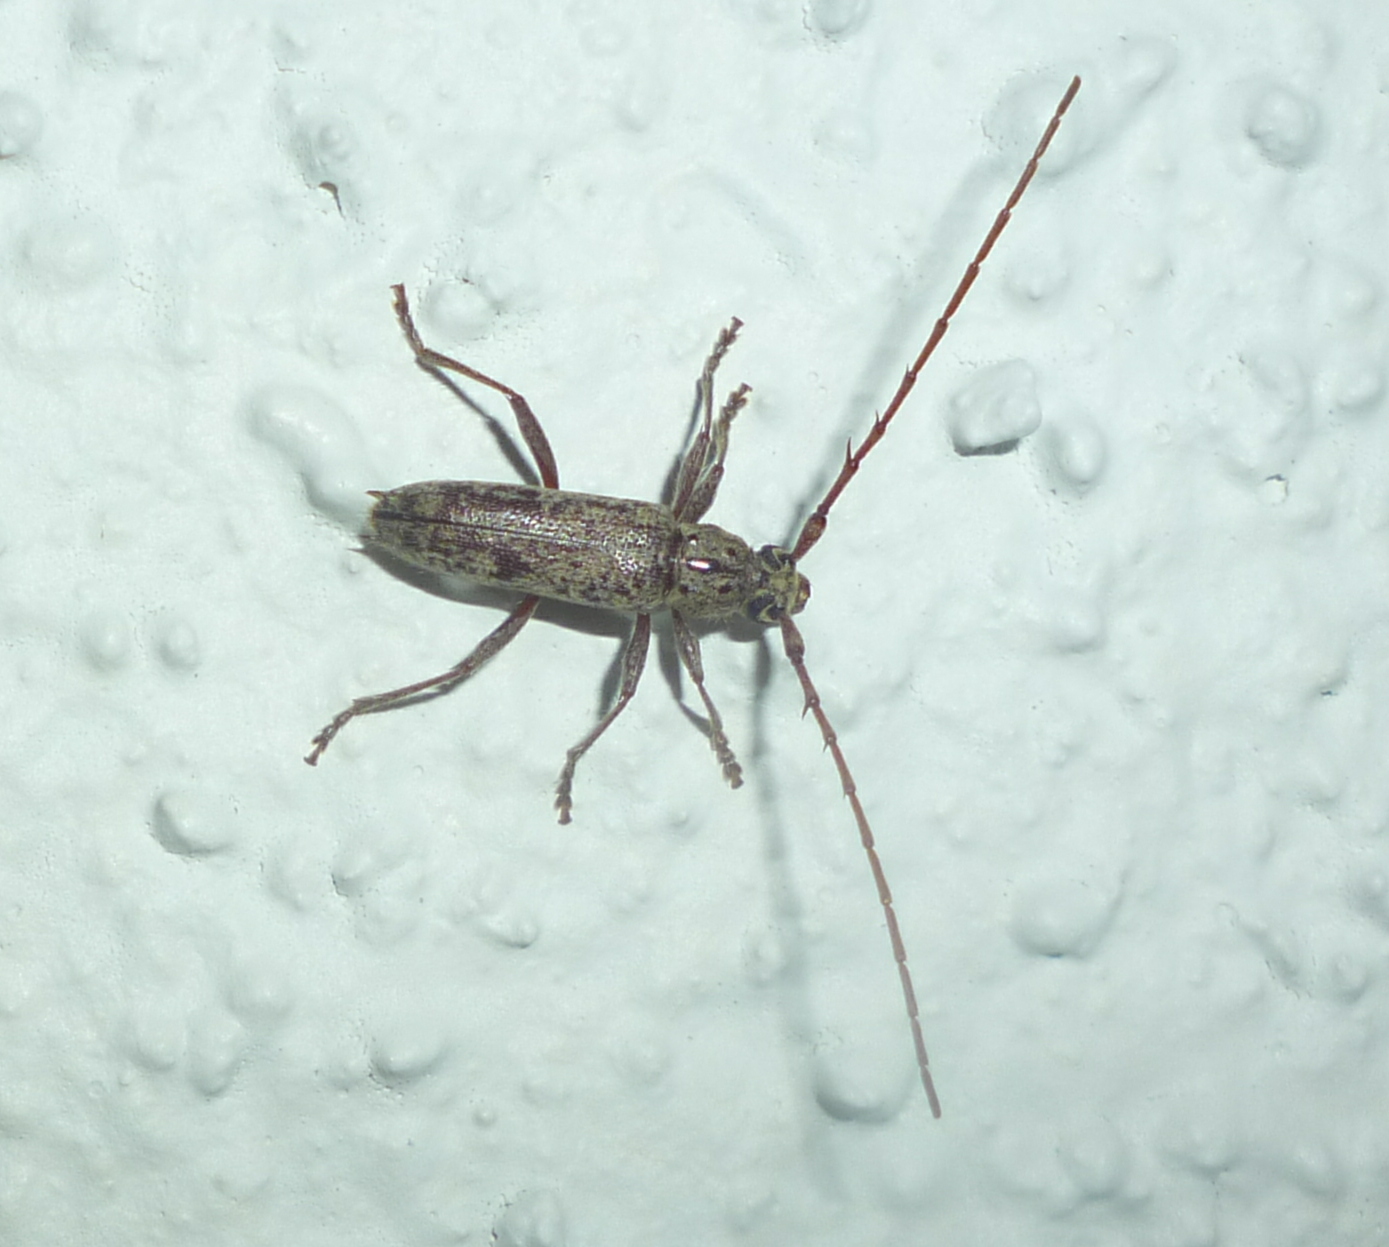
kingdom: Animalia
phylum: Arthropoda
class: Insecta
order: Coleoptera
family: Cerambycidae
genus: Elaphidion
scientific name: Elaphidion mucronatum
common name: Spined oak borer
